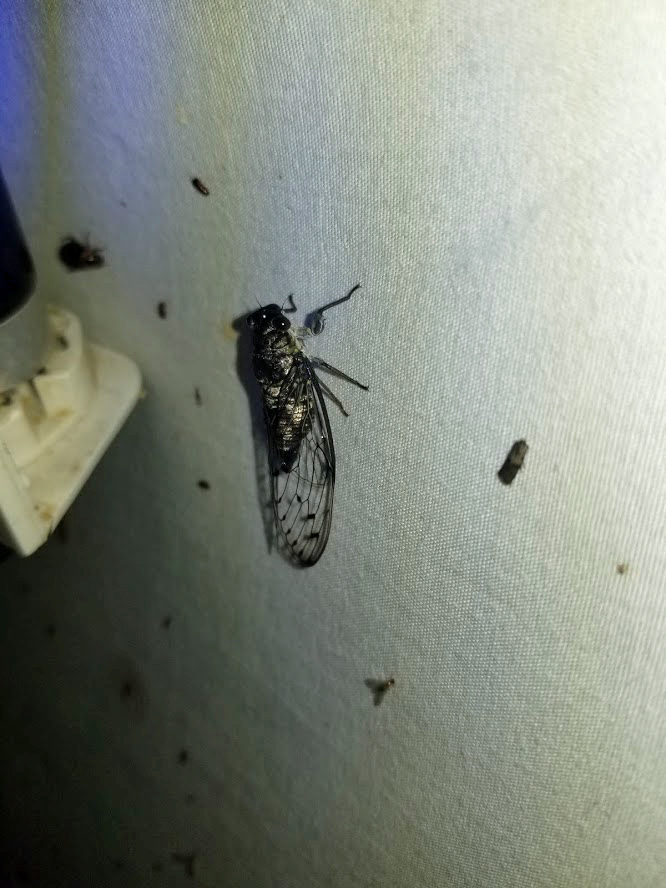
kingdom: Animalia
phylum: Arthropoda
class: Insecta
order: Hemiptera
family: Cicadidae
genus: Neocicada
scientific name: Neocicada hieroglyphica
